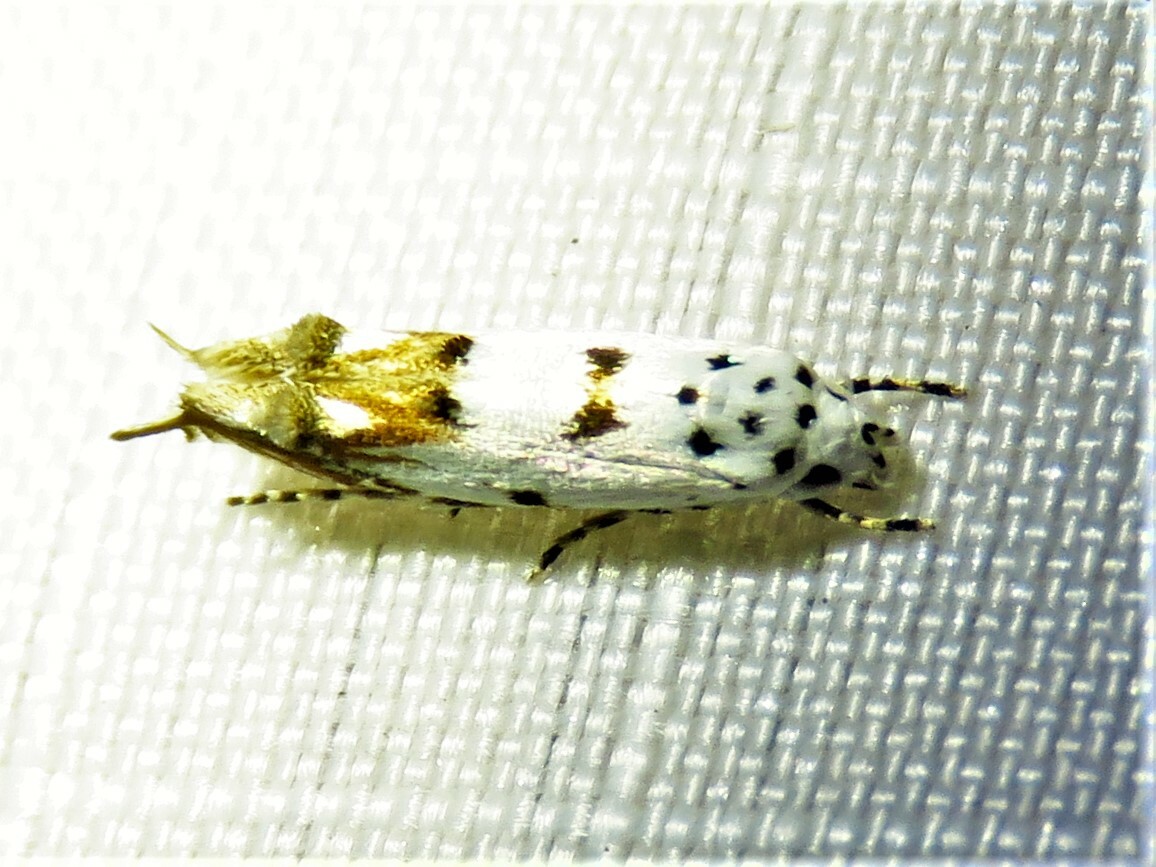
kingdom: Animalia
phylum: Arthropoda
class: Insecta
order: Lepidoptera
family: Momphidae
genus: Mompha
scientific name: Mompha eloisella
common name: Red-streaked mompha moth
